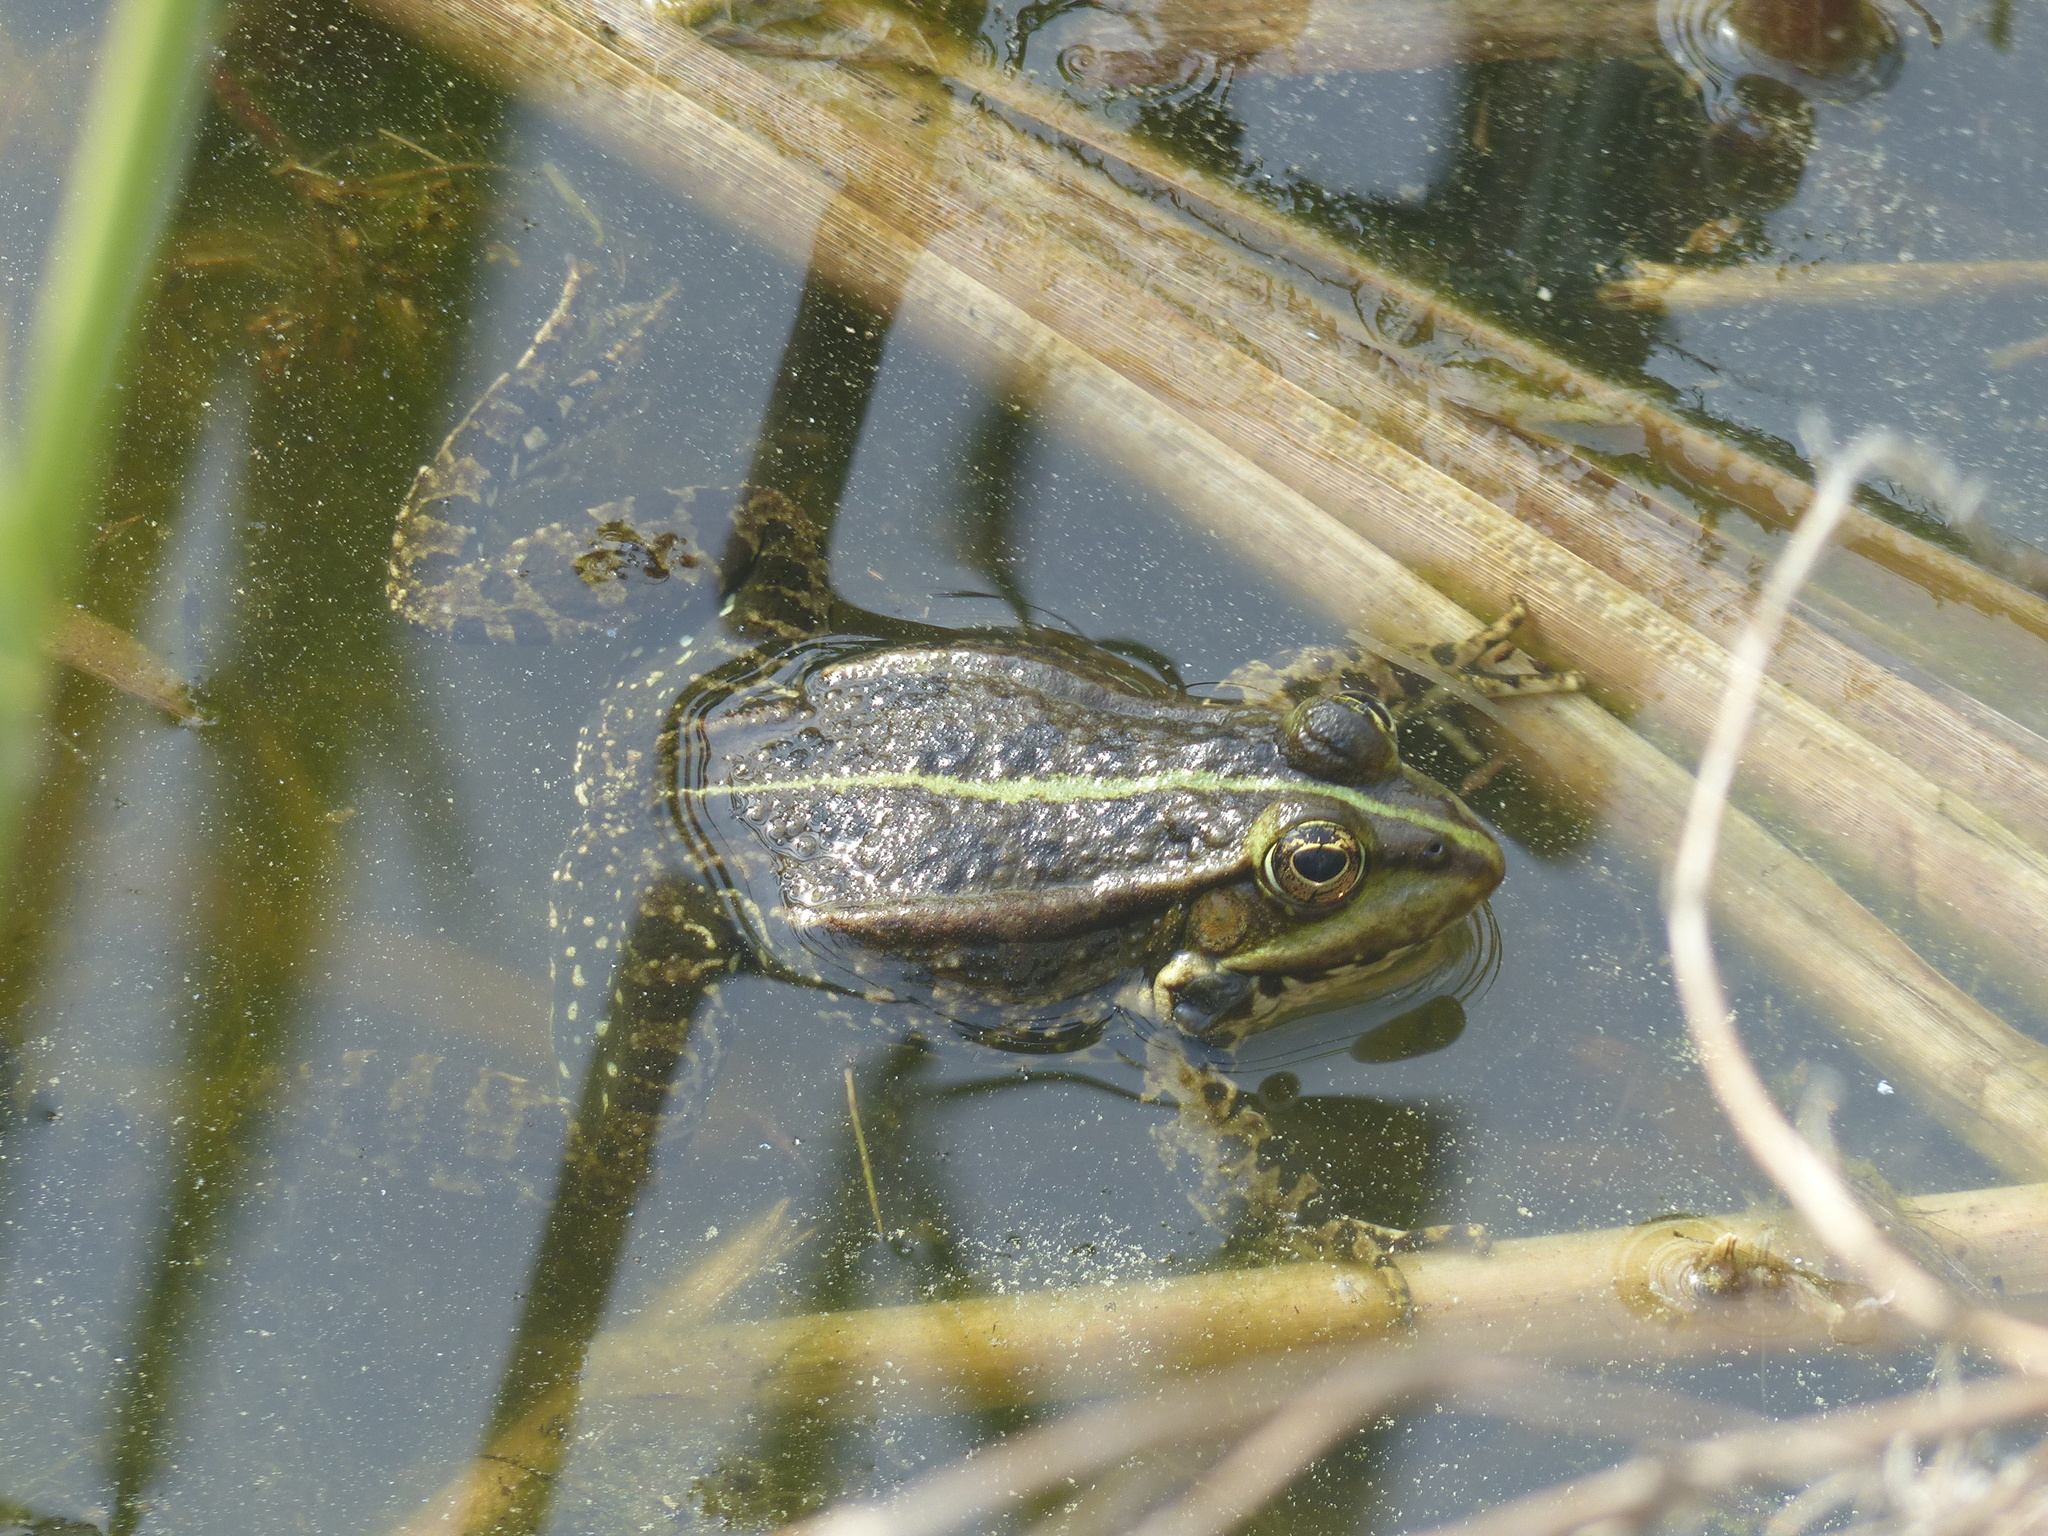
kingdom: Animalia
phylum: Chordata
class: Amphibia
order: Anura
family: Ranidae
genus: Pelophylax
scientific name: Pelophylax
